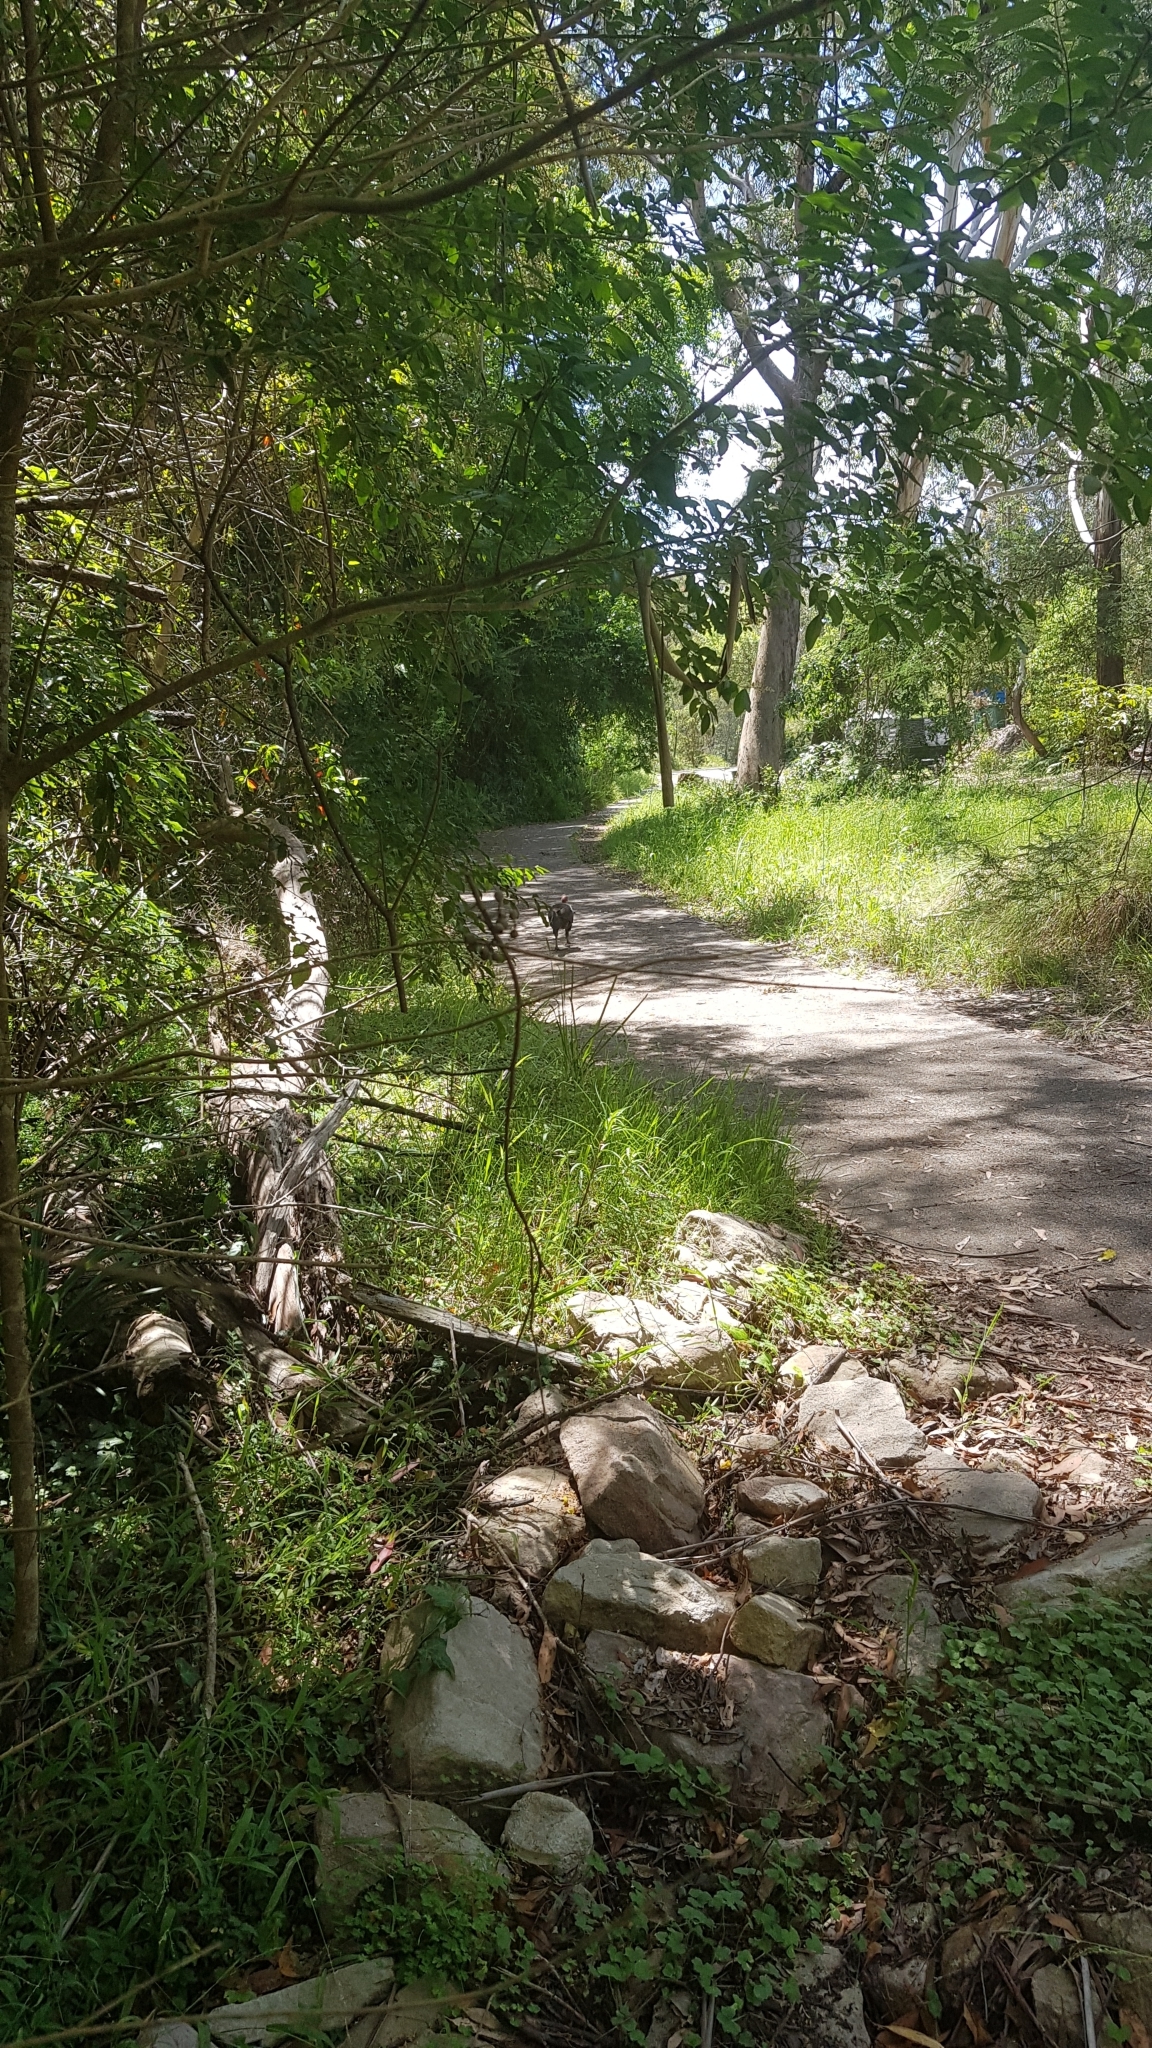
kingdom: Animalia
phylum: Chordata
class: Aves
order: Galliformes
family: Megapodiidae
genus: Alectura
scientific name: Alectura lathami
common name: Australian brushturkey
